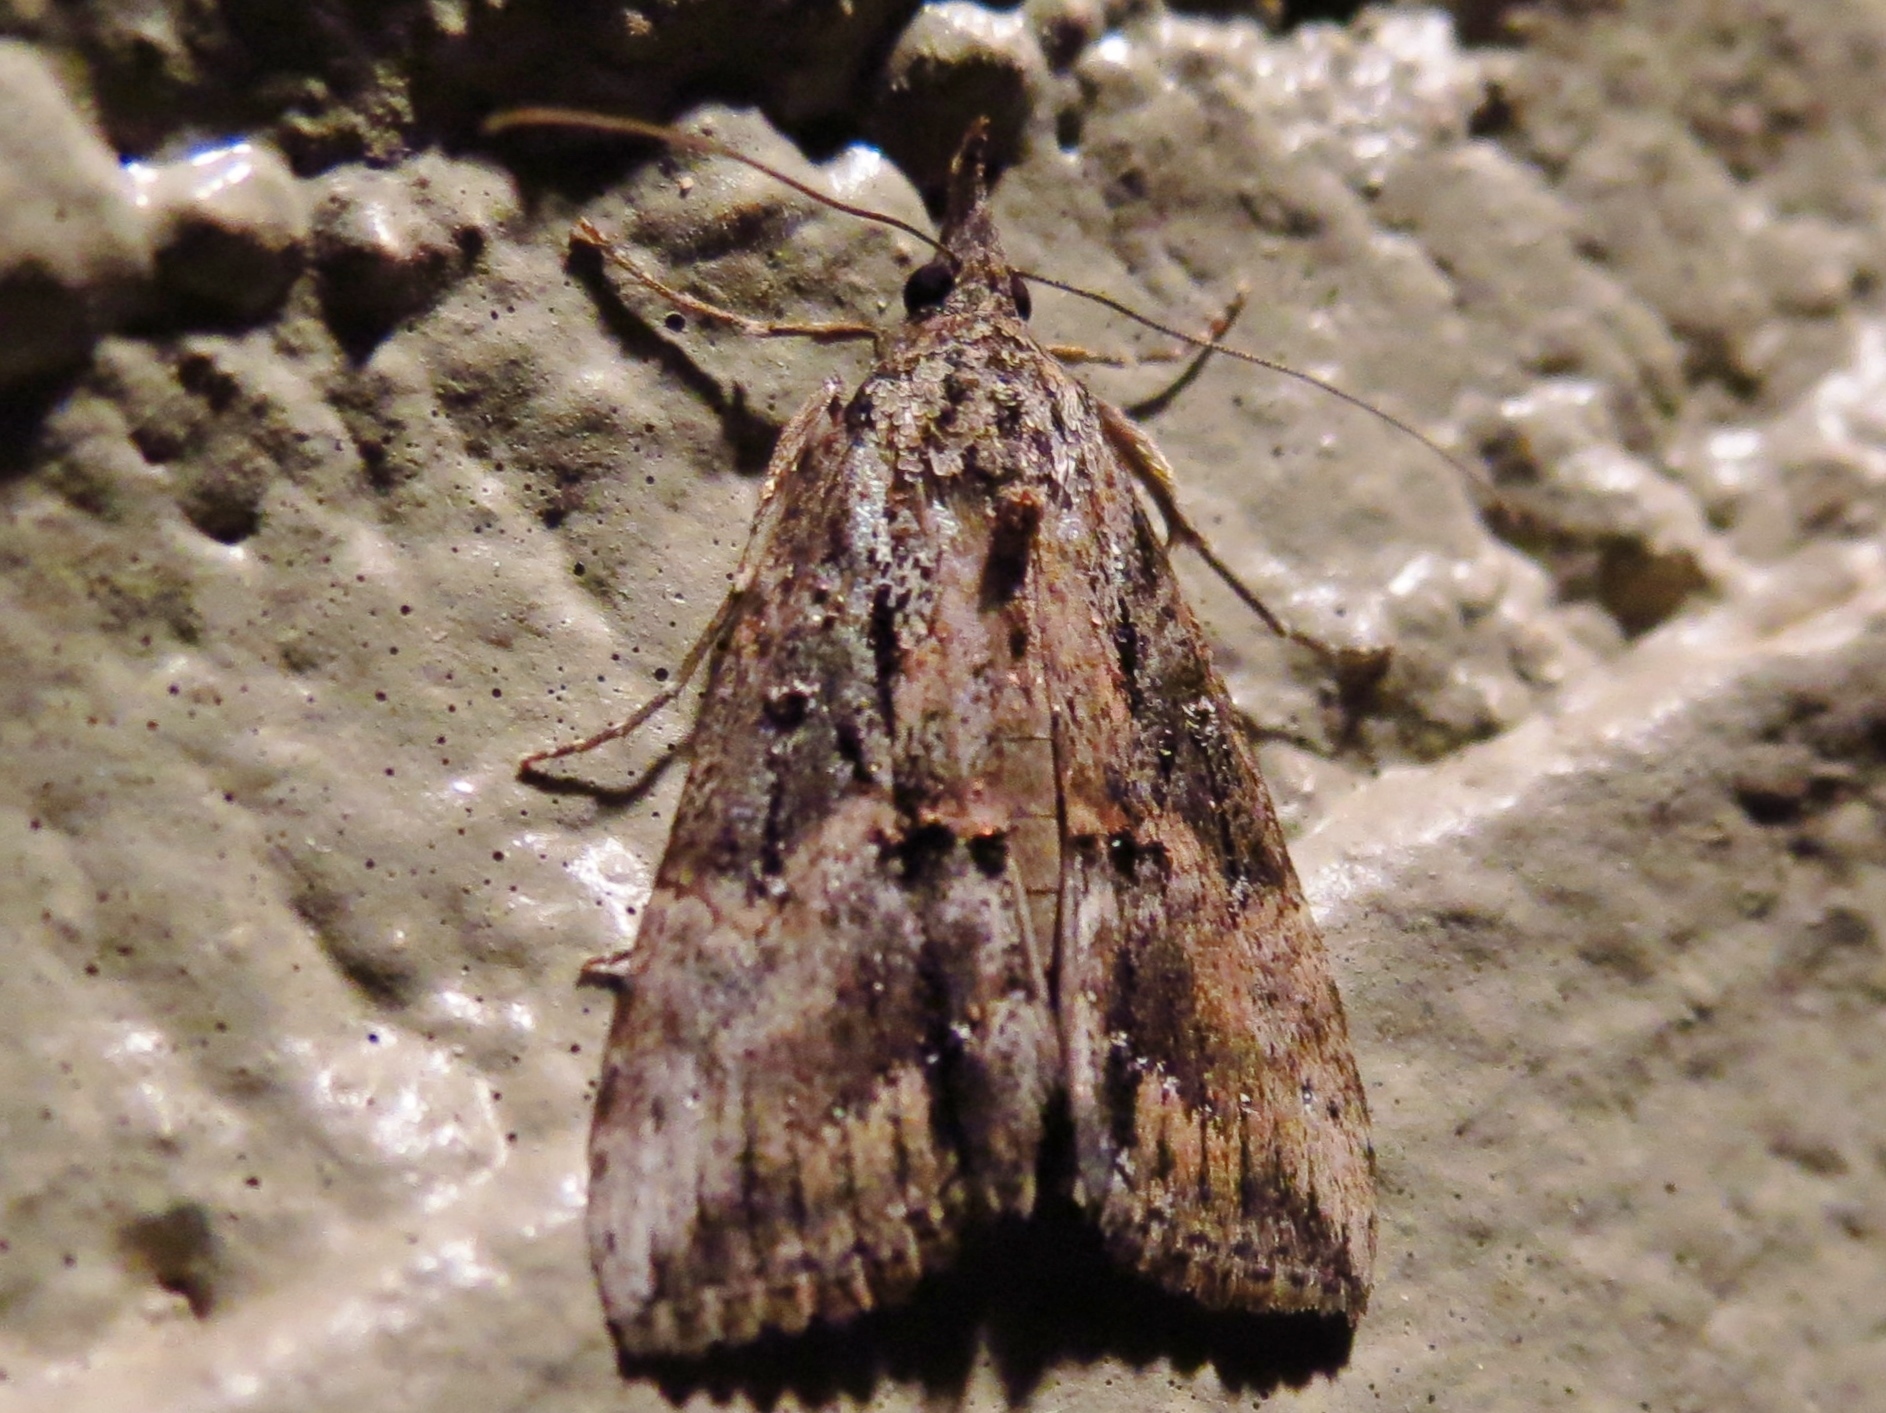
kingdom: Animalia
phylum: Arthropoda
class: Insecta
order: Lepidoptera
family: Erebidae
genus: Hypena
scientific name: Hypena scabra
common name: Green cloverworm
